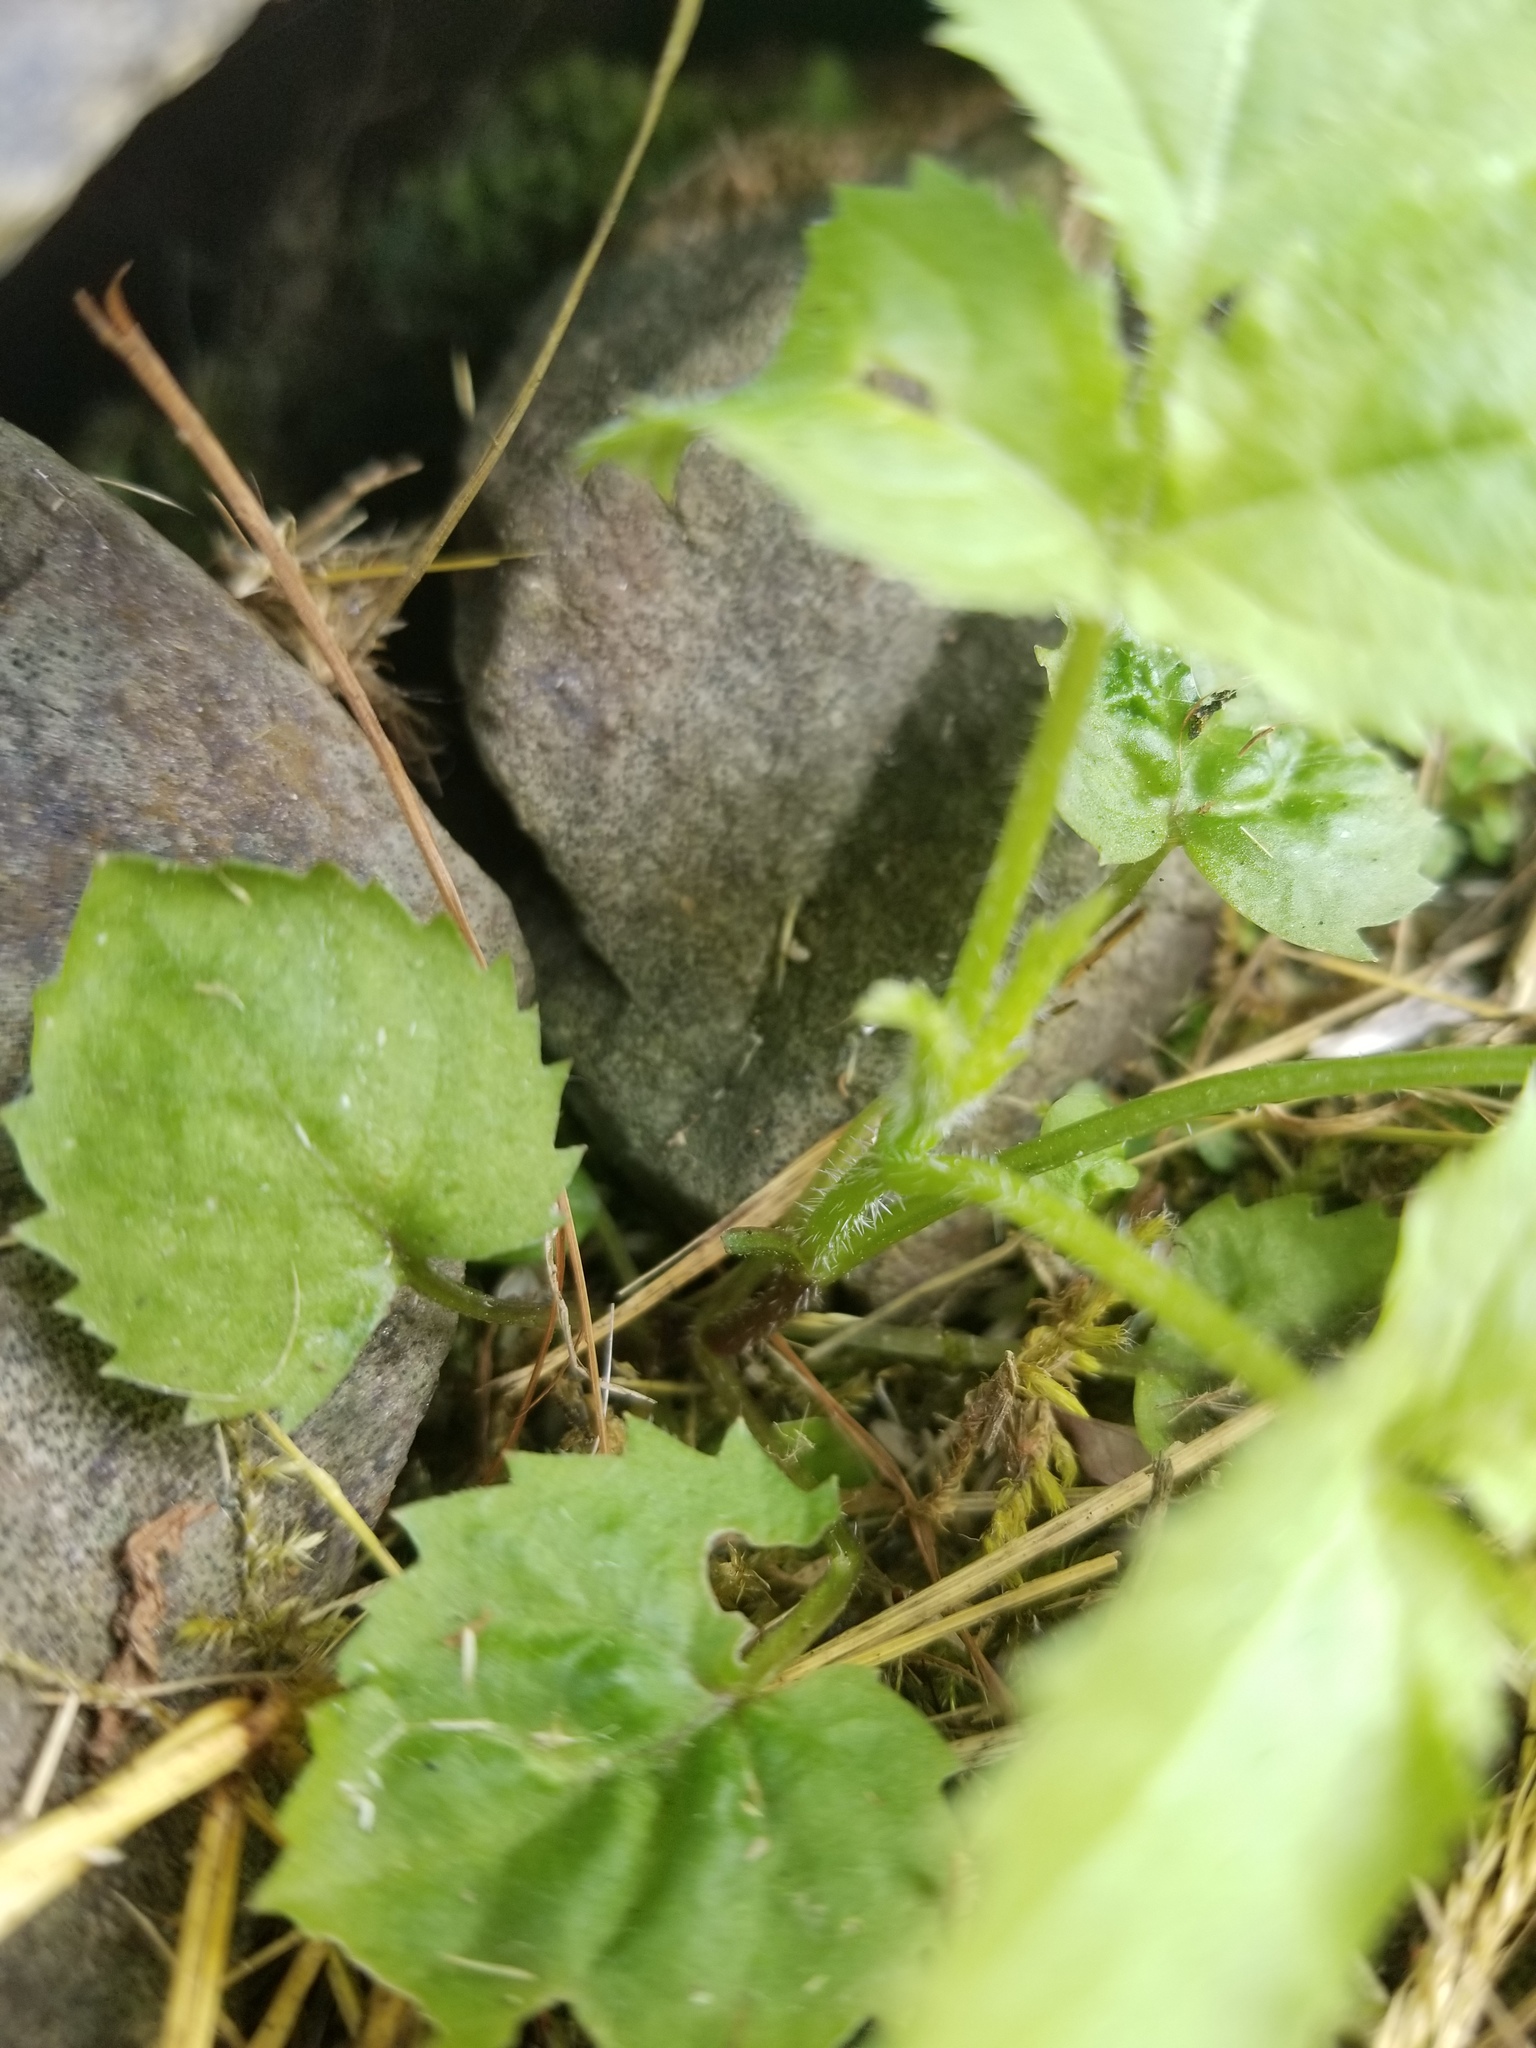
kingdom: Plantae
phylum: Tracheophyta
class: Magnoliopsida
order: Dipsacales
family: Viburnaceae
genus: Sambucus
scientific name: Sambucus racemosa
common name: Red-berried elder
